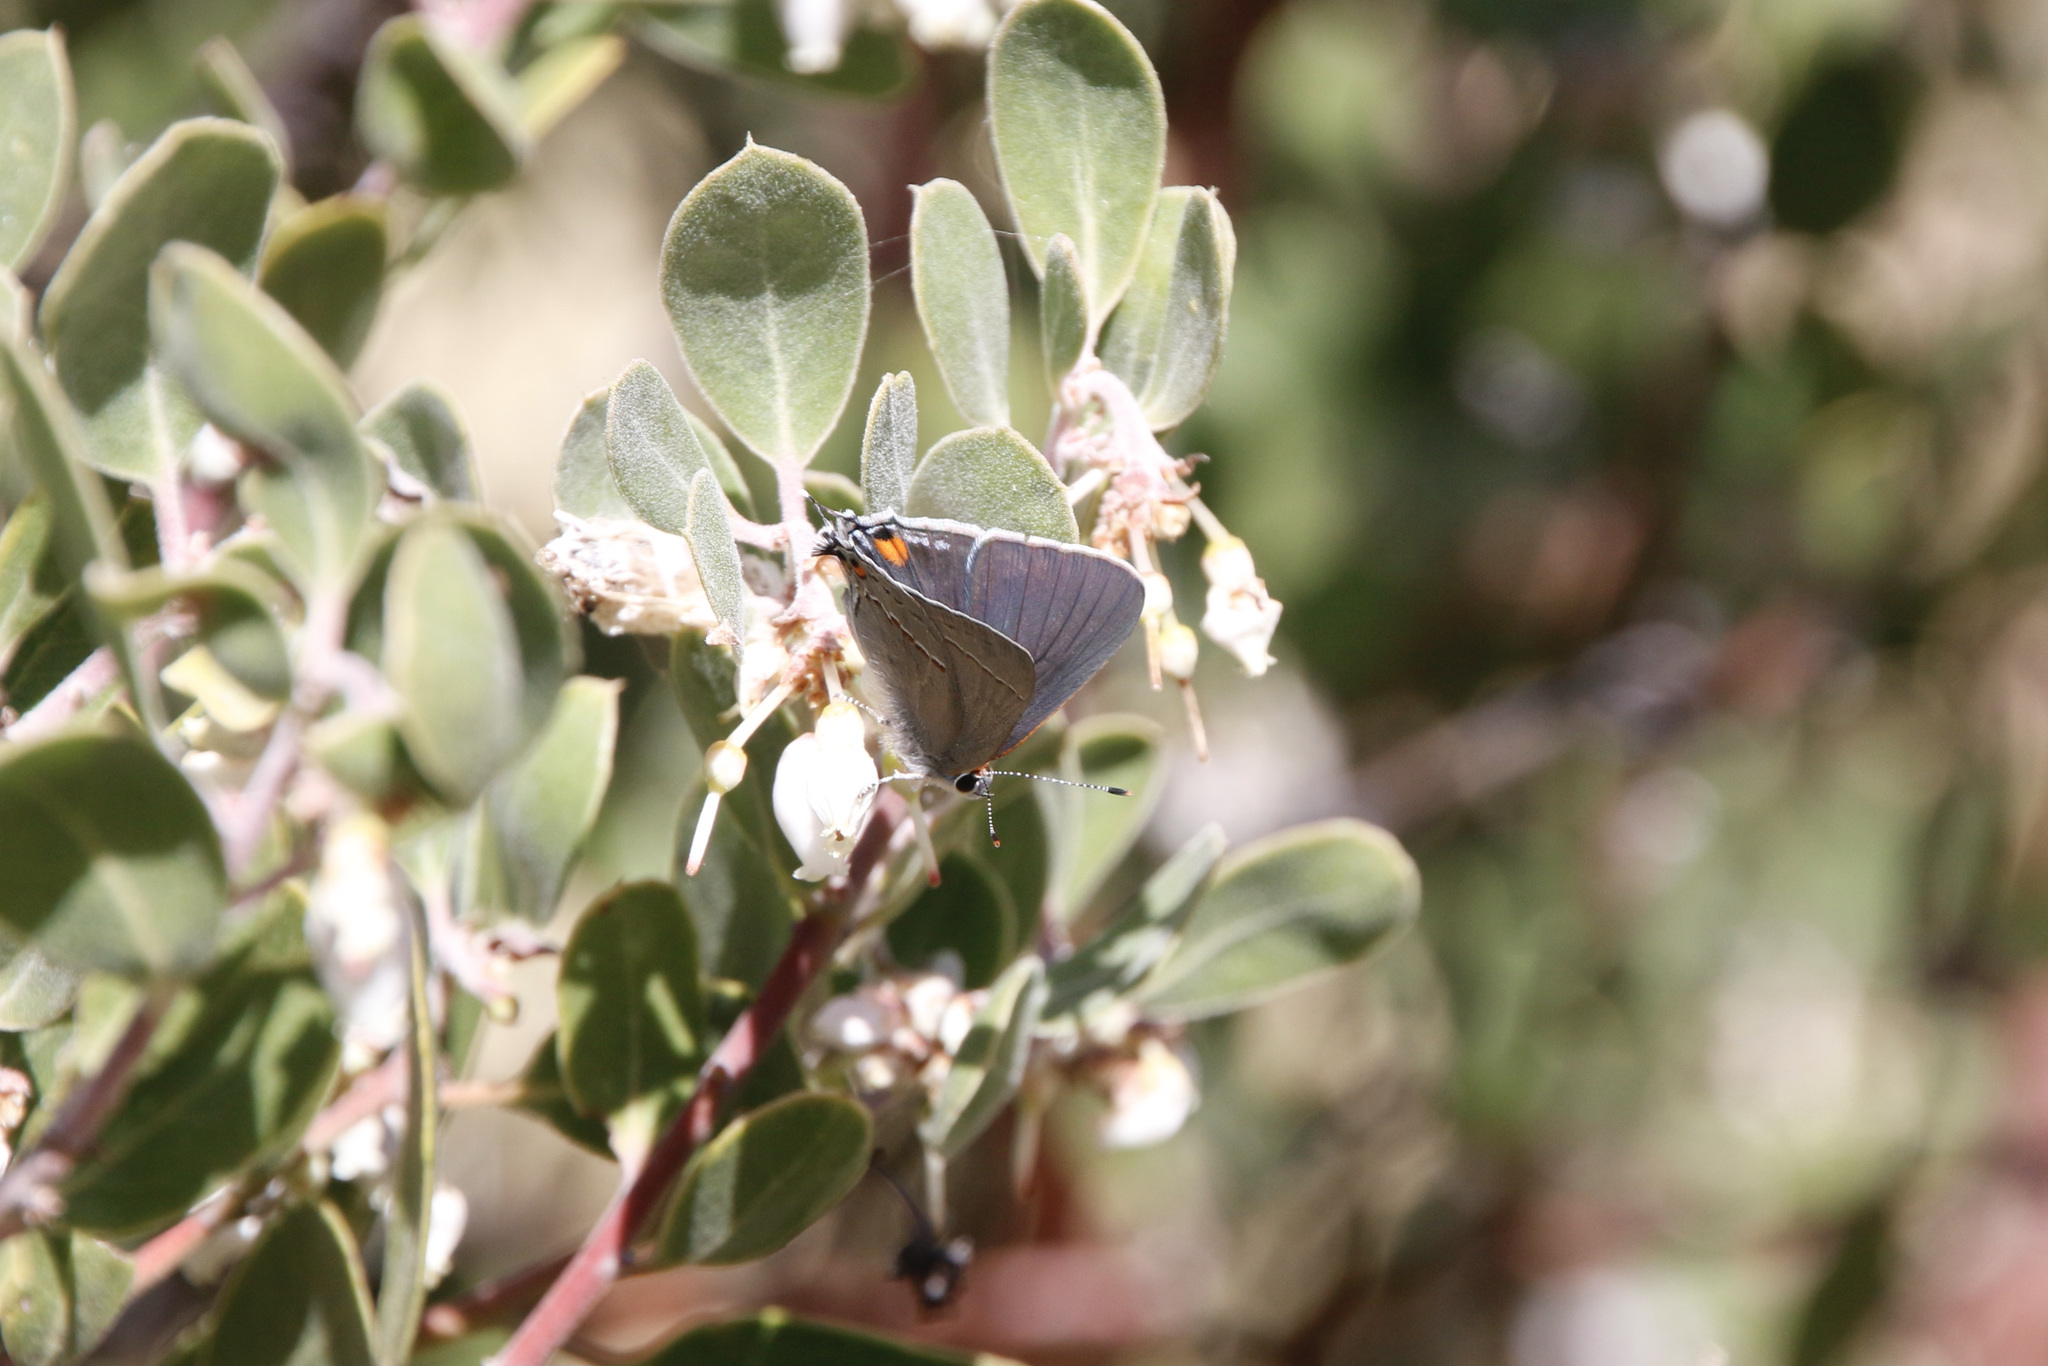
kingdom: Animalia
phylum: Arthropoda
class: Insecta
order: Lepidoptera
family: Lycaenidae
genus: Strymon
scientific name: Strymon melinus
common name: Gray hairstreak
